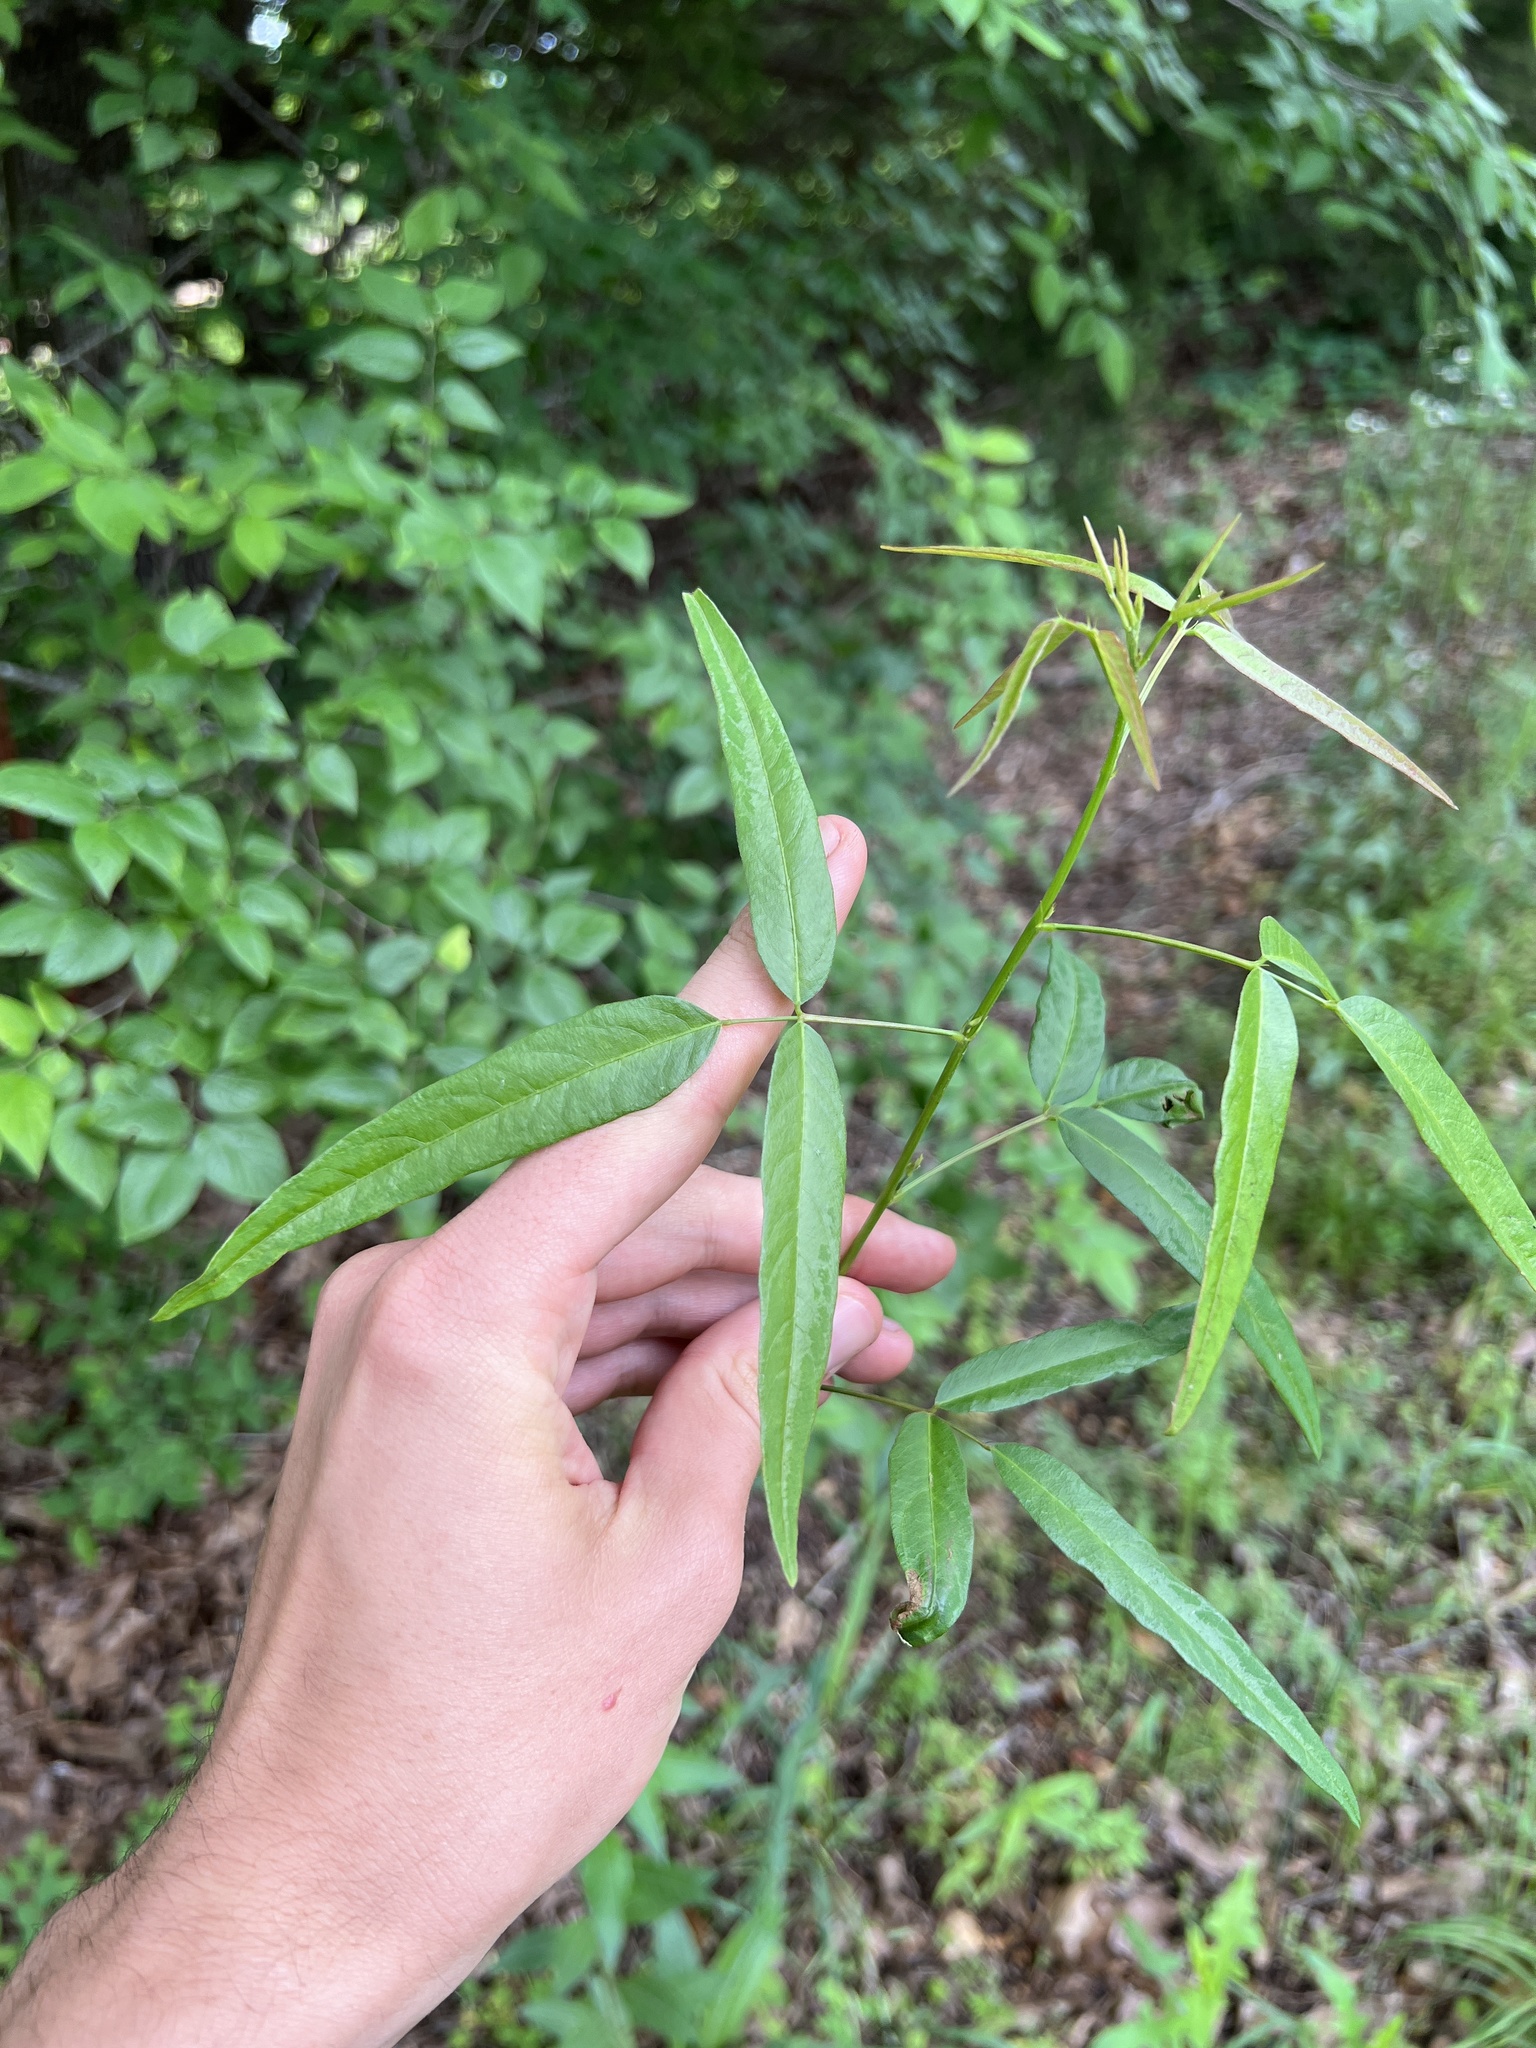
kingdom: Plantae
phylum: Tracheophyta
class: Magnoliopsida
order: Fabales
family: Fabaceae
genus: Desmodium
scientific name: Desmodium paniculatum
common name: Panicled tick-clover
